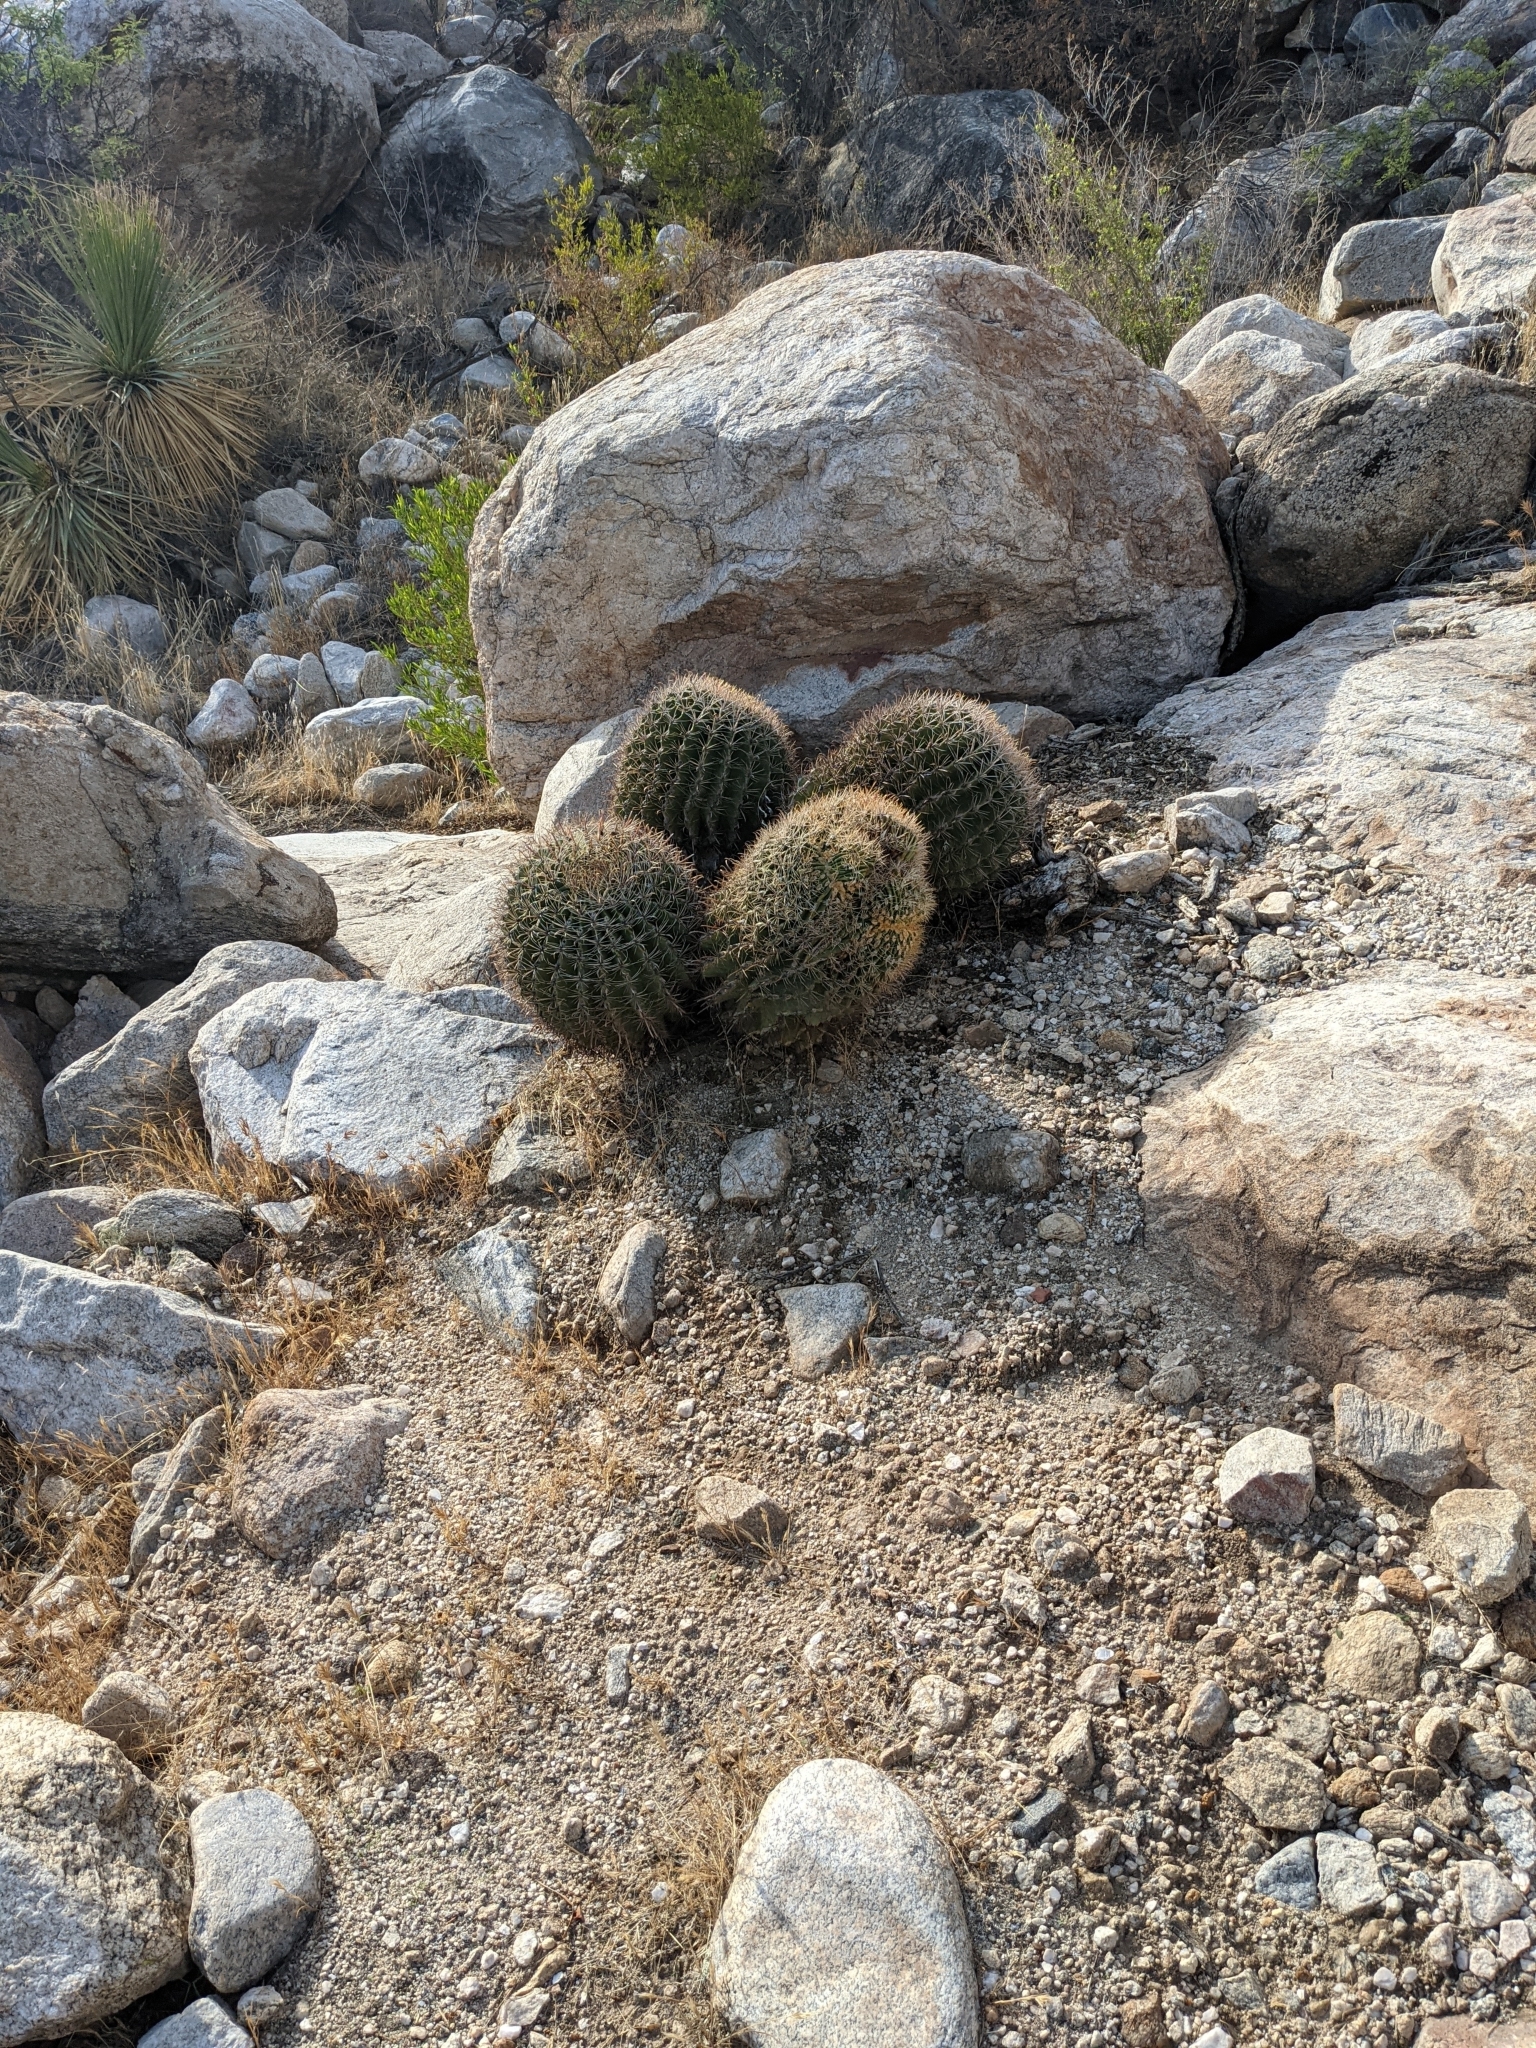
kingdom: Plantae
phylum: Tracheophyta
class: Magnoliopsida
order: Caryophyllales
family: Cactaceae
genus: Ferocactus
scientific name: Ferocactus wislizeni
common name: Candy barrel cactus
